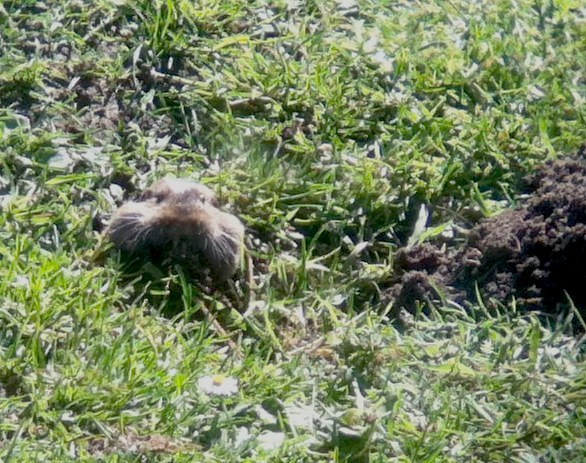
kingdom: Animalia
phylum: Chordata
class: Mammalia
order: Rodentia
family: Geomyidae
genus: Thomomys
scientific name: Thomomys bottae
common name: Botta's pocket gopher
